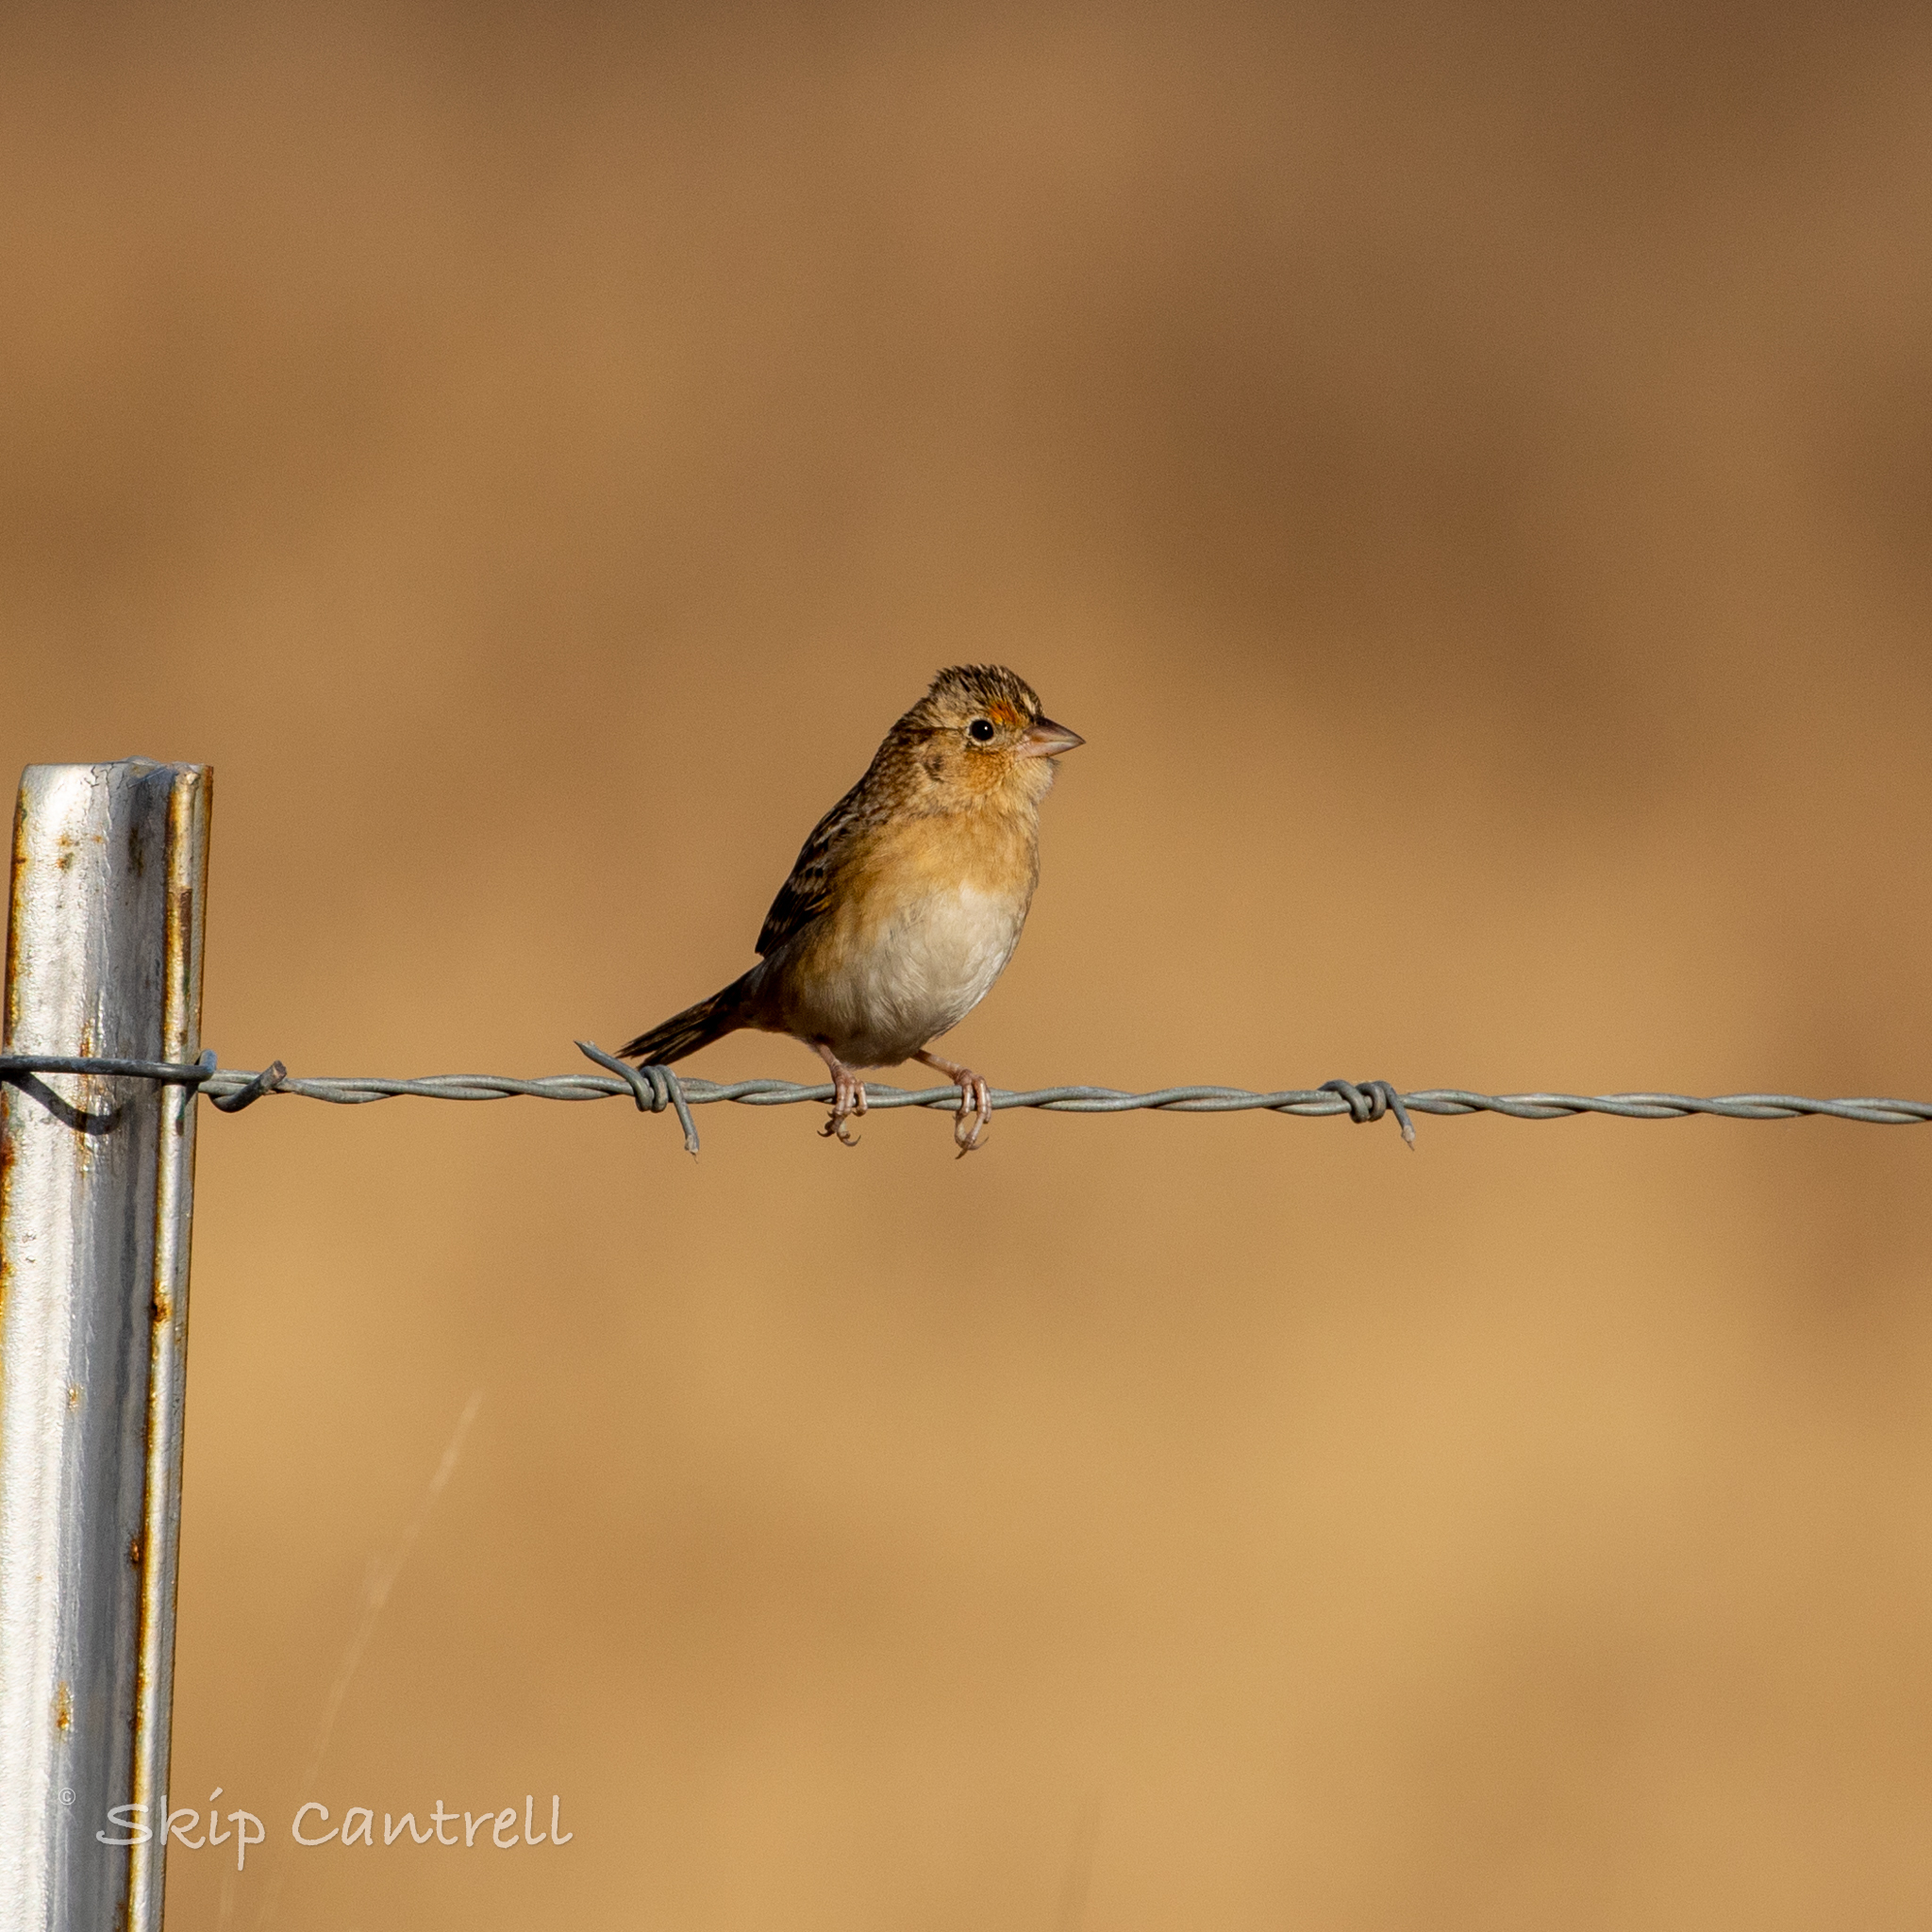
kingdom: Animalia
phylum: Chordata
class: Aves
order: Passeriformes
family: Passerellidae
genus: Ammodramus
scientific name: Ammodramus savannarum
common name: Grasshopper sparrow
